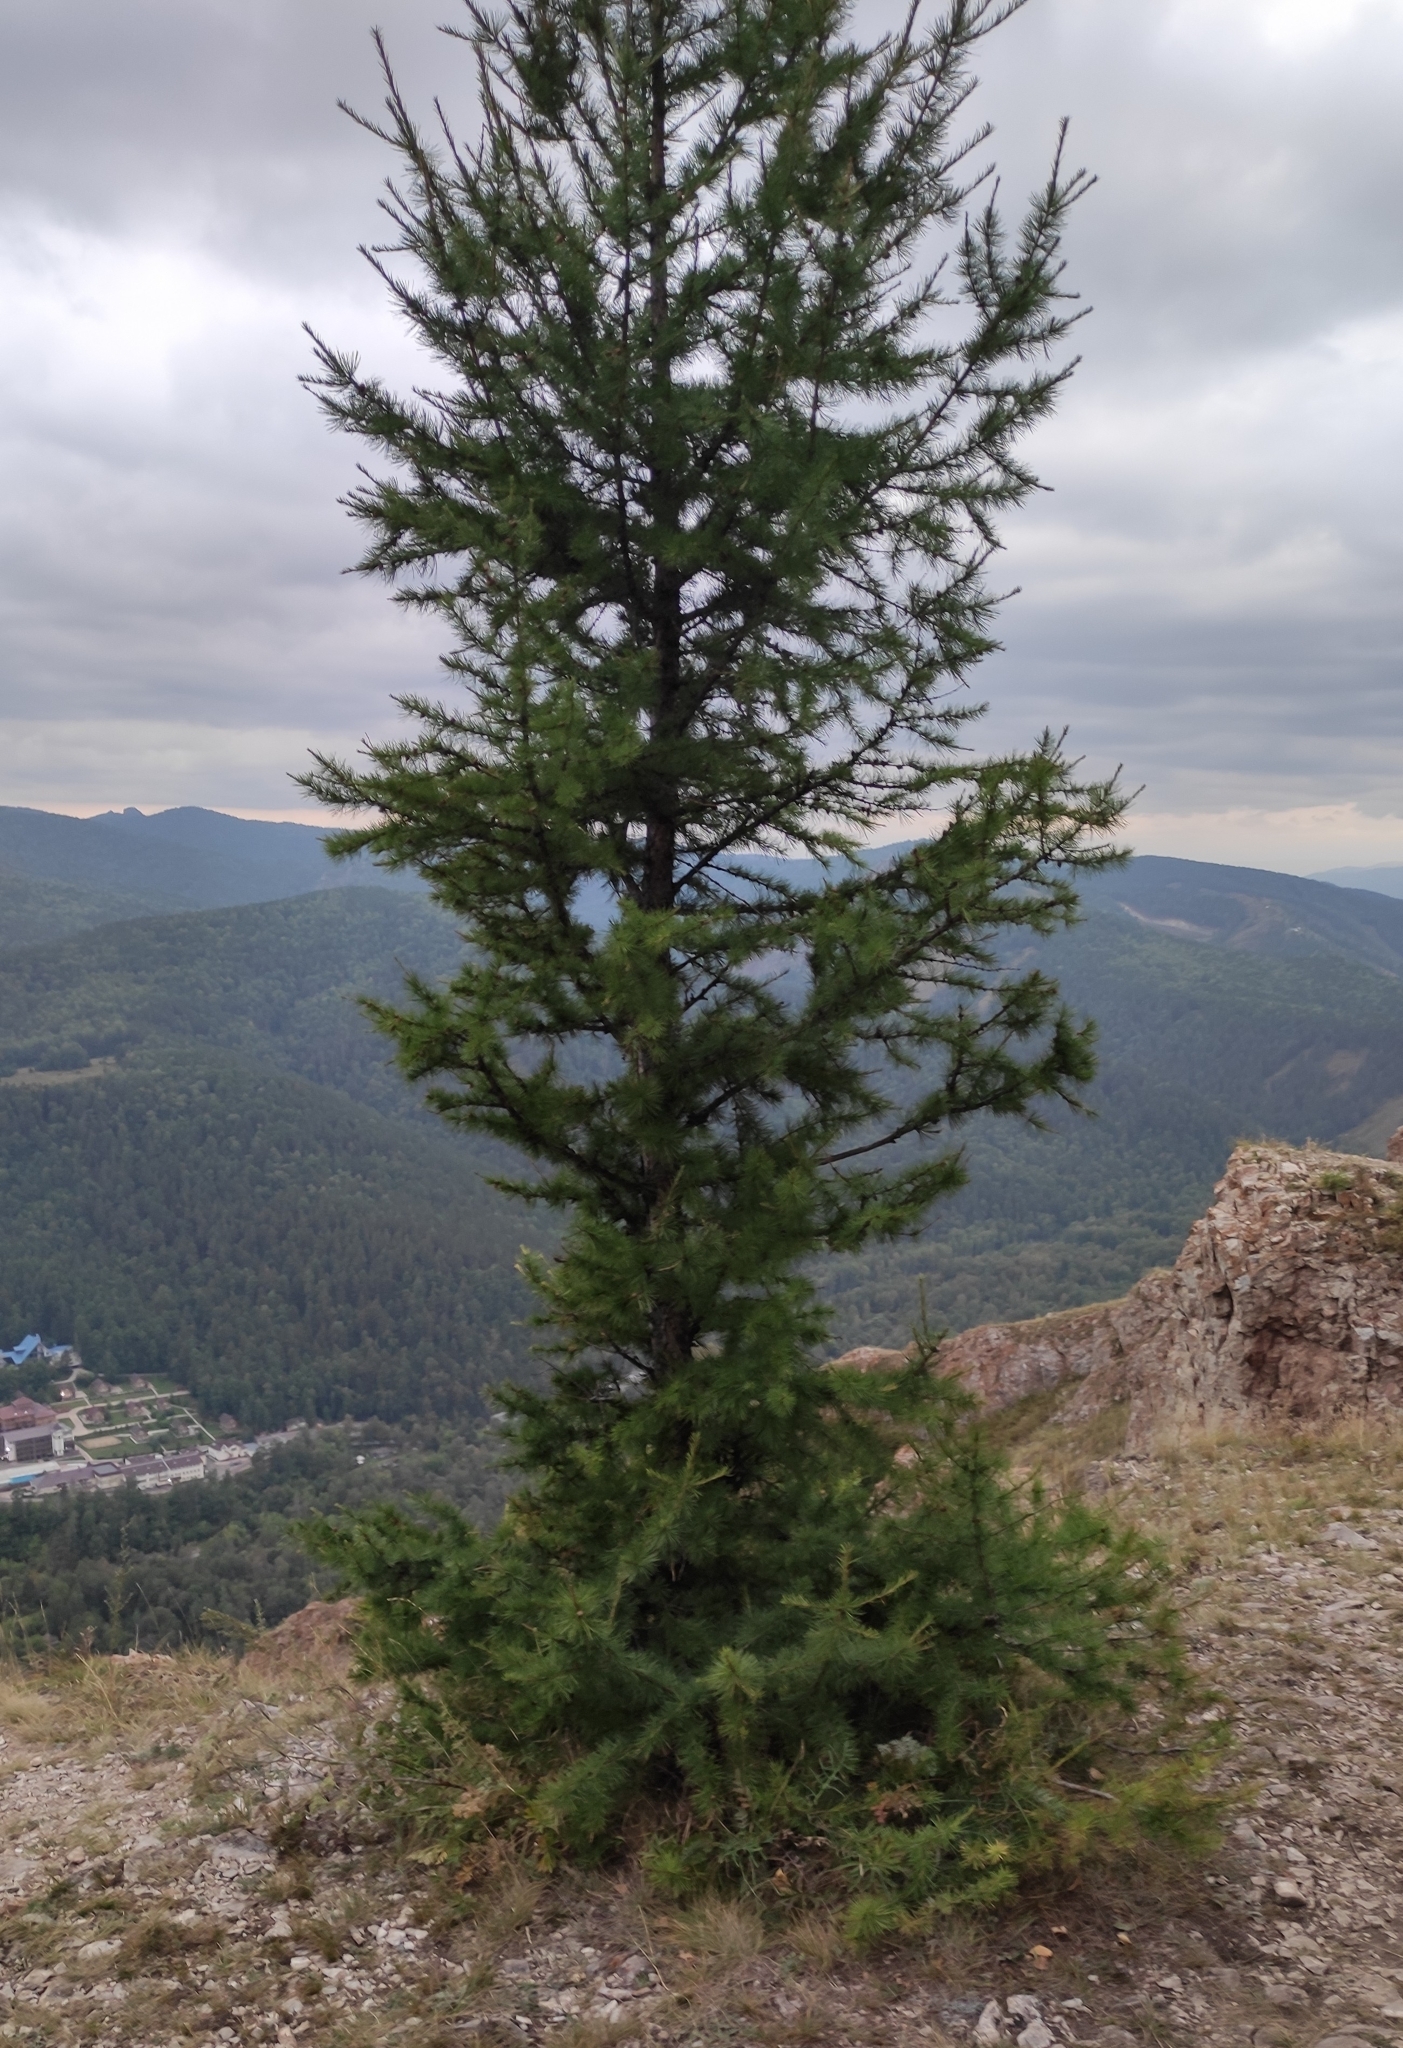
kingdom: Plantae
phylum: Tracheophyta
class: Pinopsida
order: Pinales
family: Pinaceae
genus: Larix
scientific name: Larix sibirica
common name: Siberian larch
